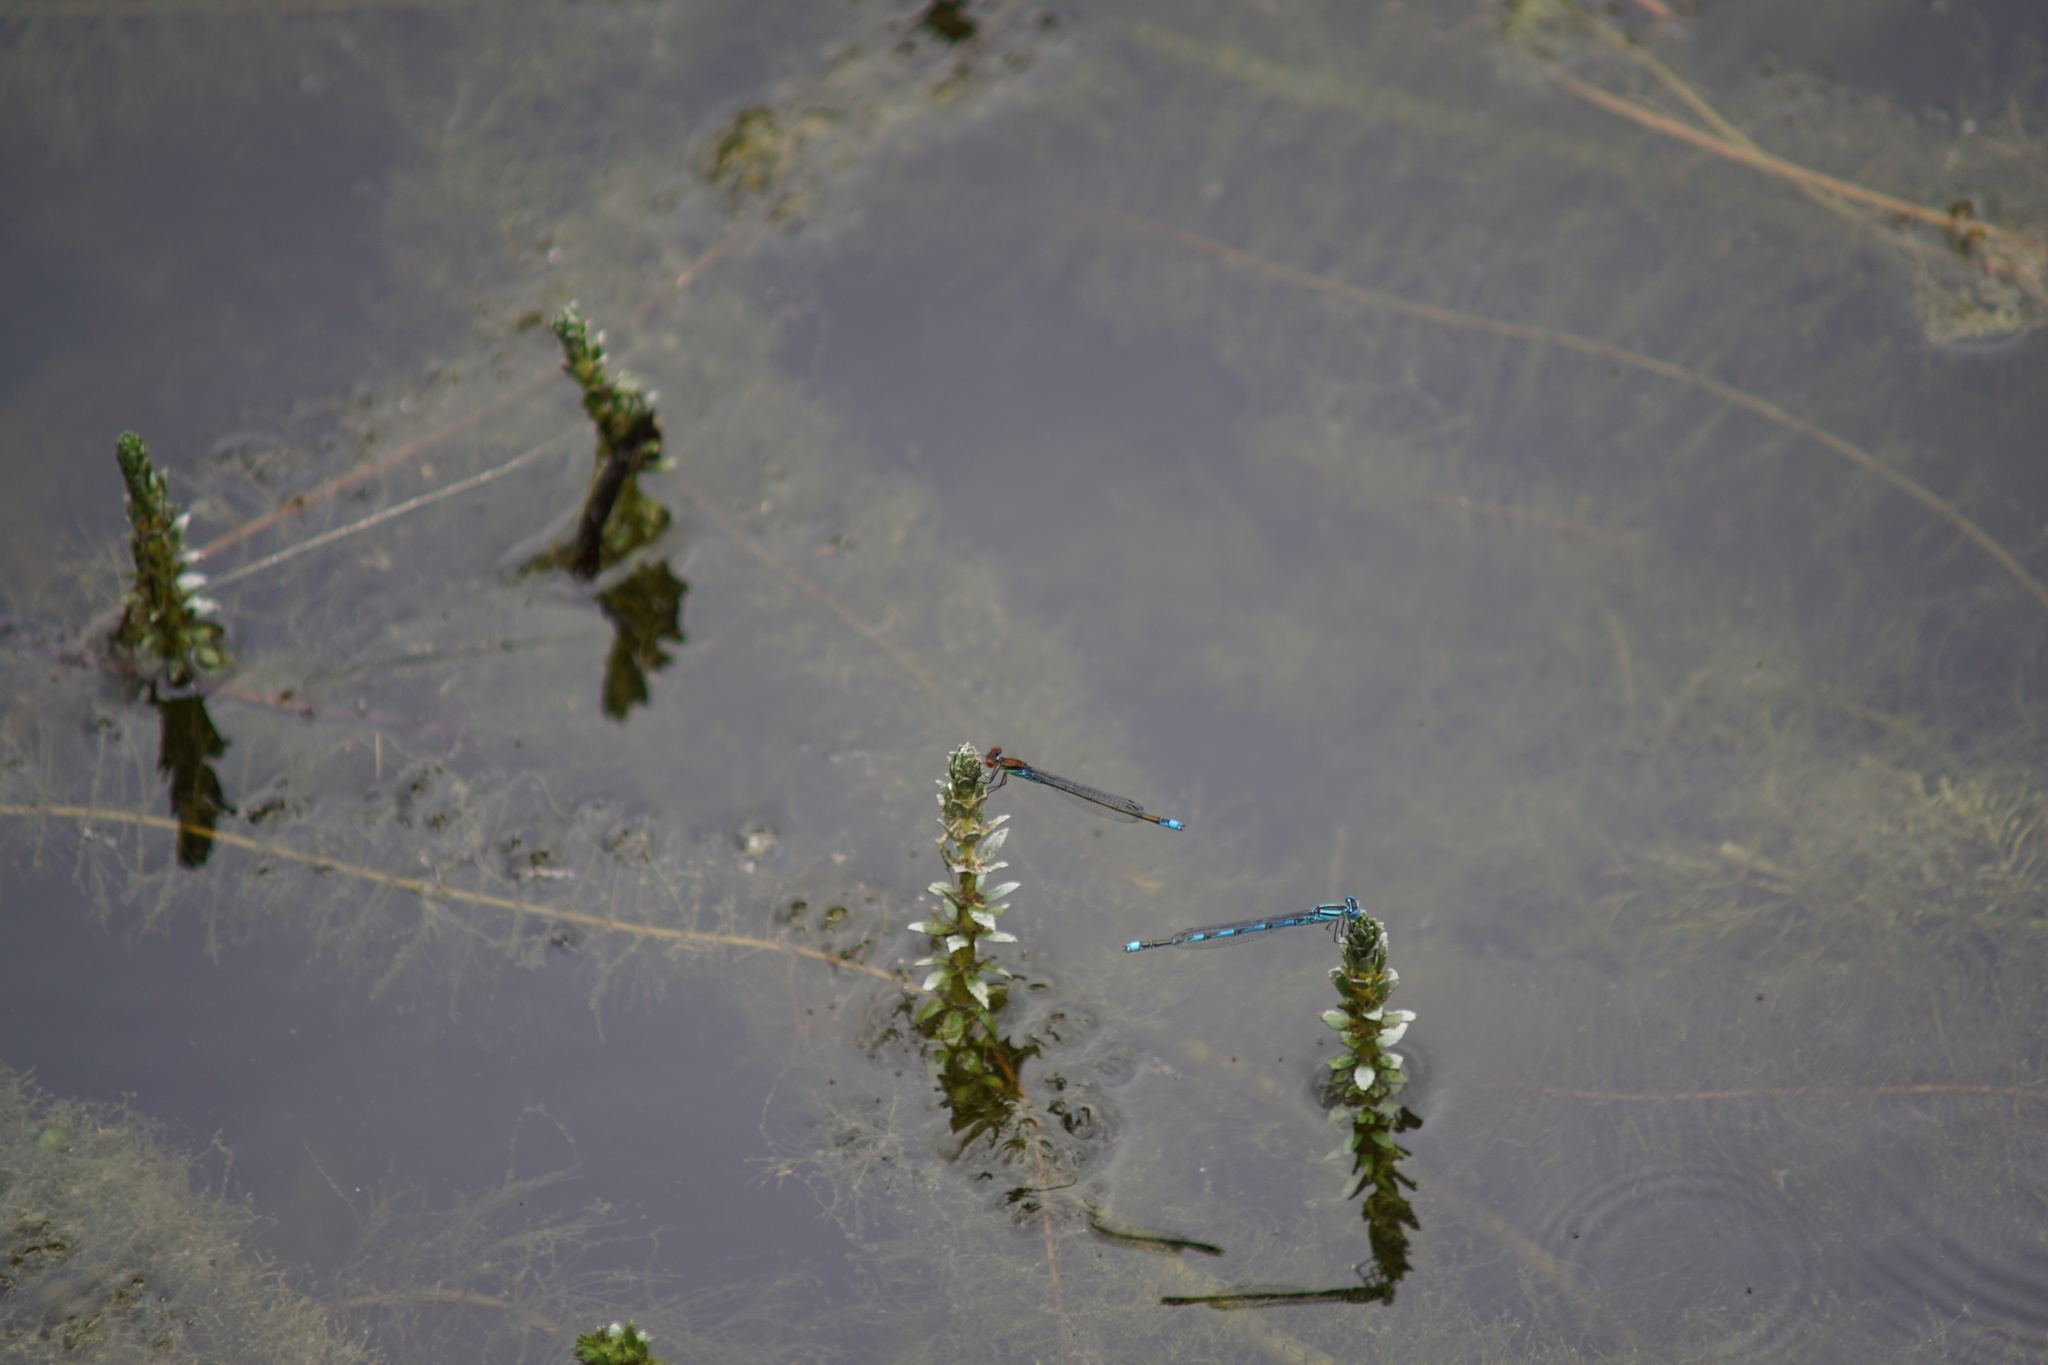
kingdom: Animalia
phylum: Arthropoda
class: Insecta
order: Odonata
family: Coenagrionidae
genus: Erythromma
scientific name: Erythromma viridulum
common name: Small red-eyed damselfly
